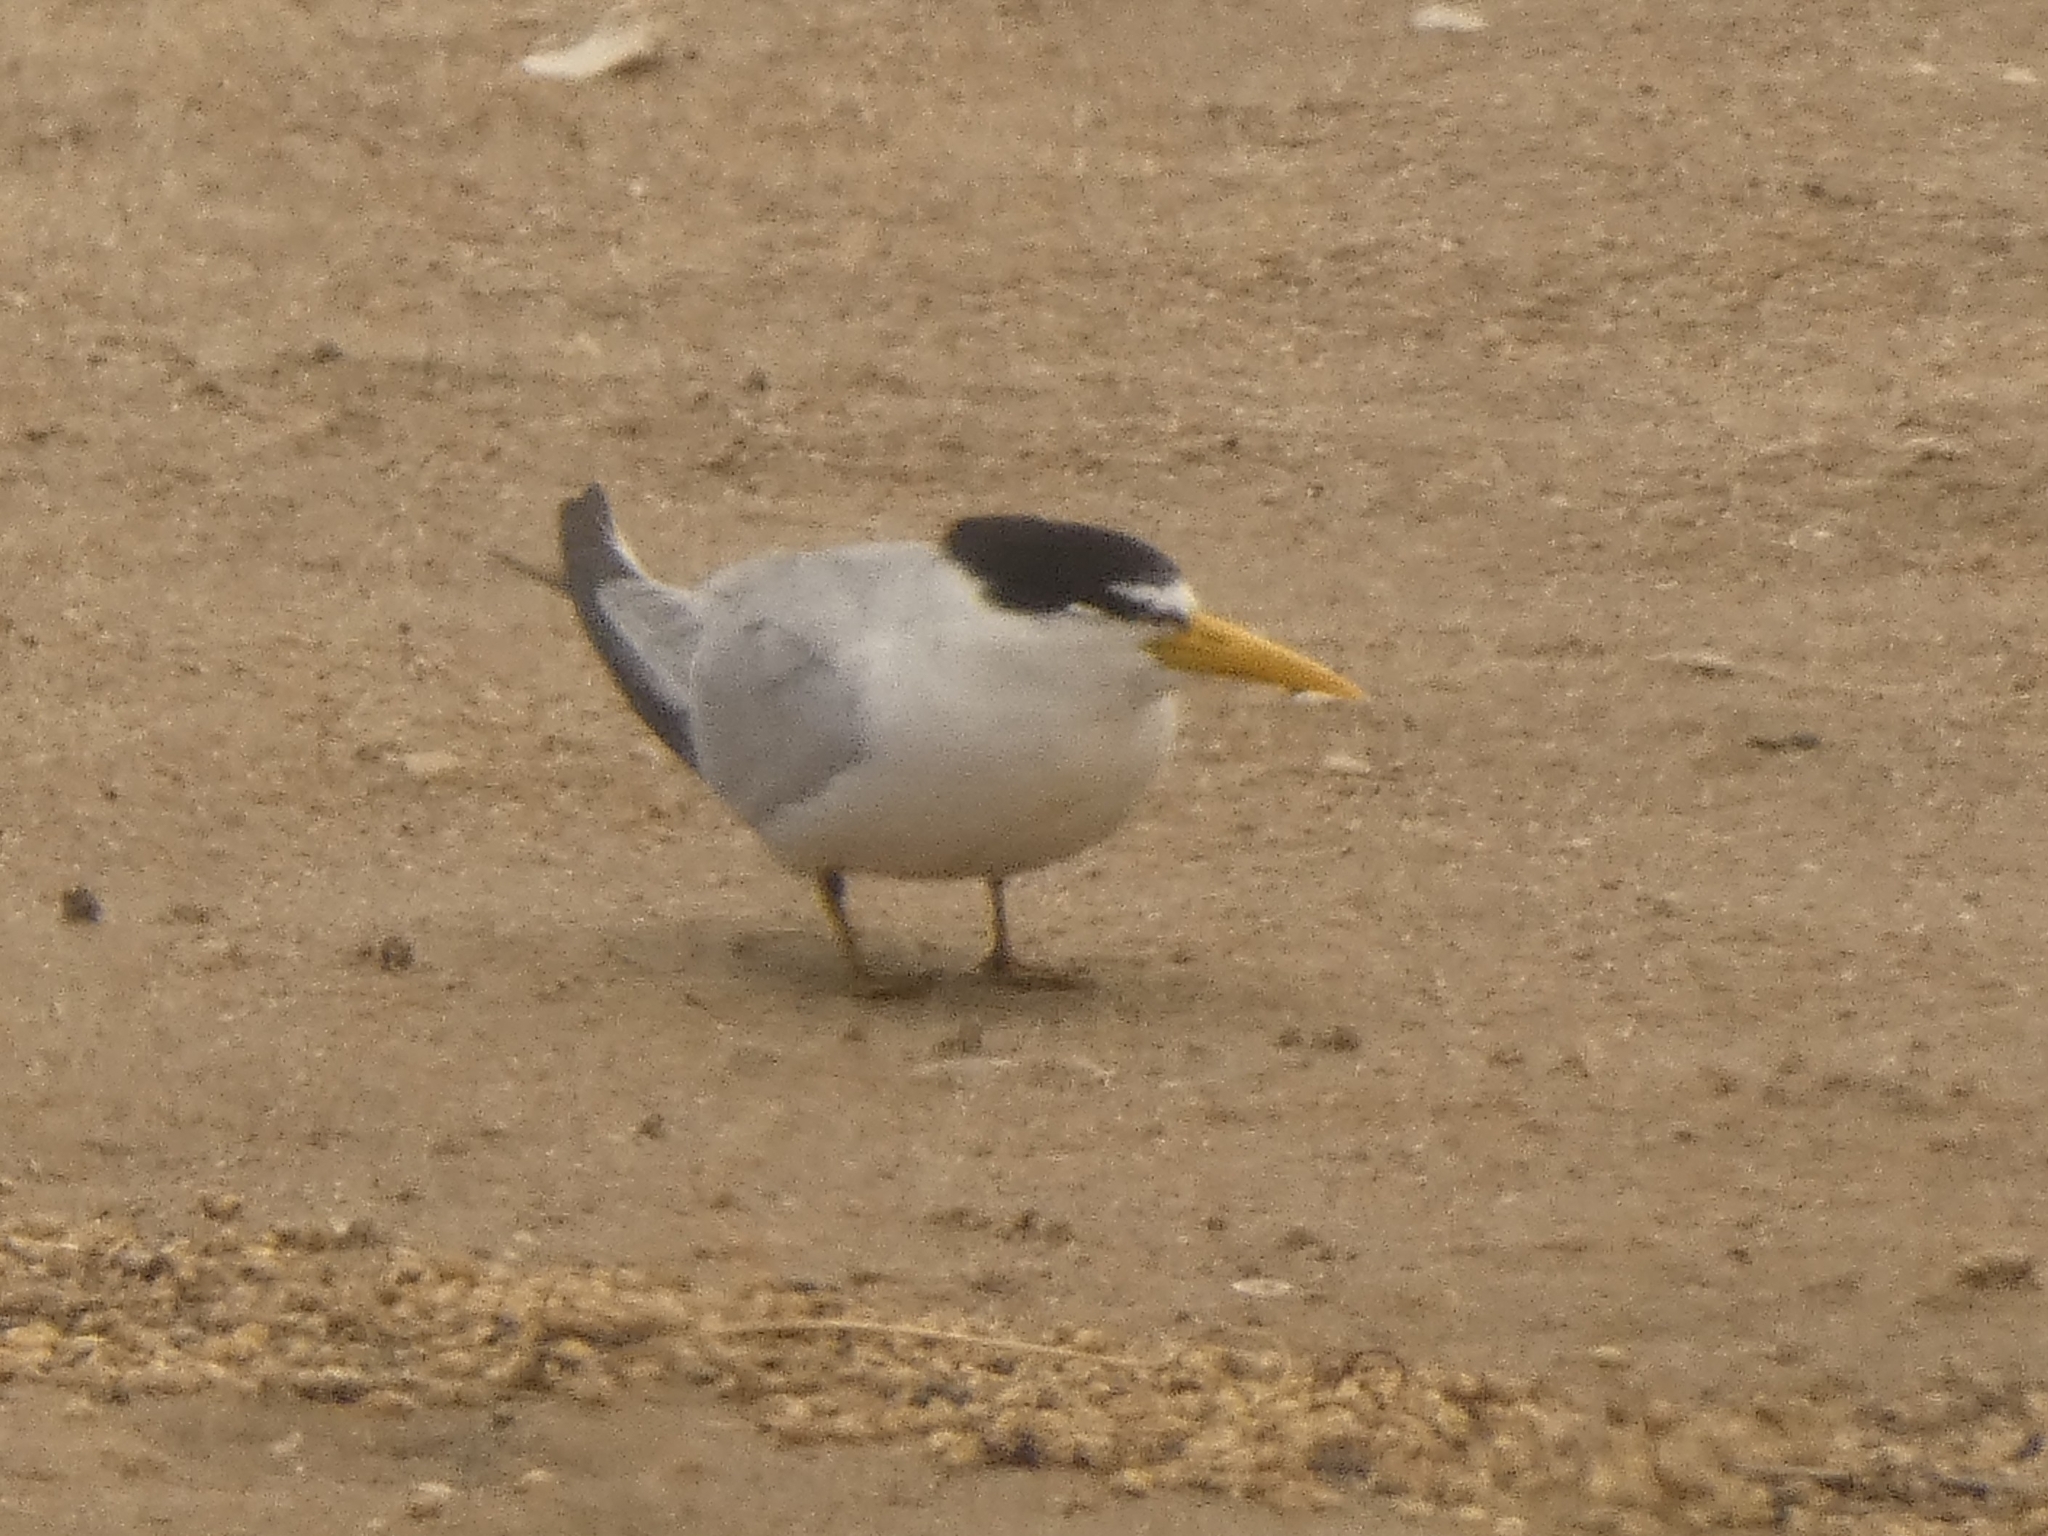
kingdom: Animalia
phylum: Chordata
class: Aves
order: Charadriiformes
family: Laridae
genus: Sternula
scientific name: Sternula superciliaris
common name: Yellow-billed tern
